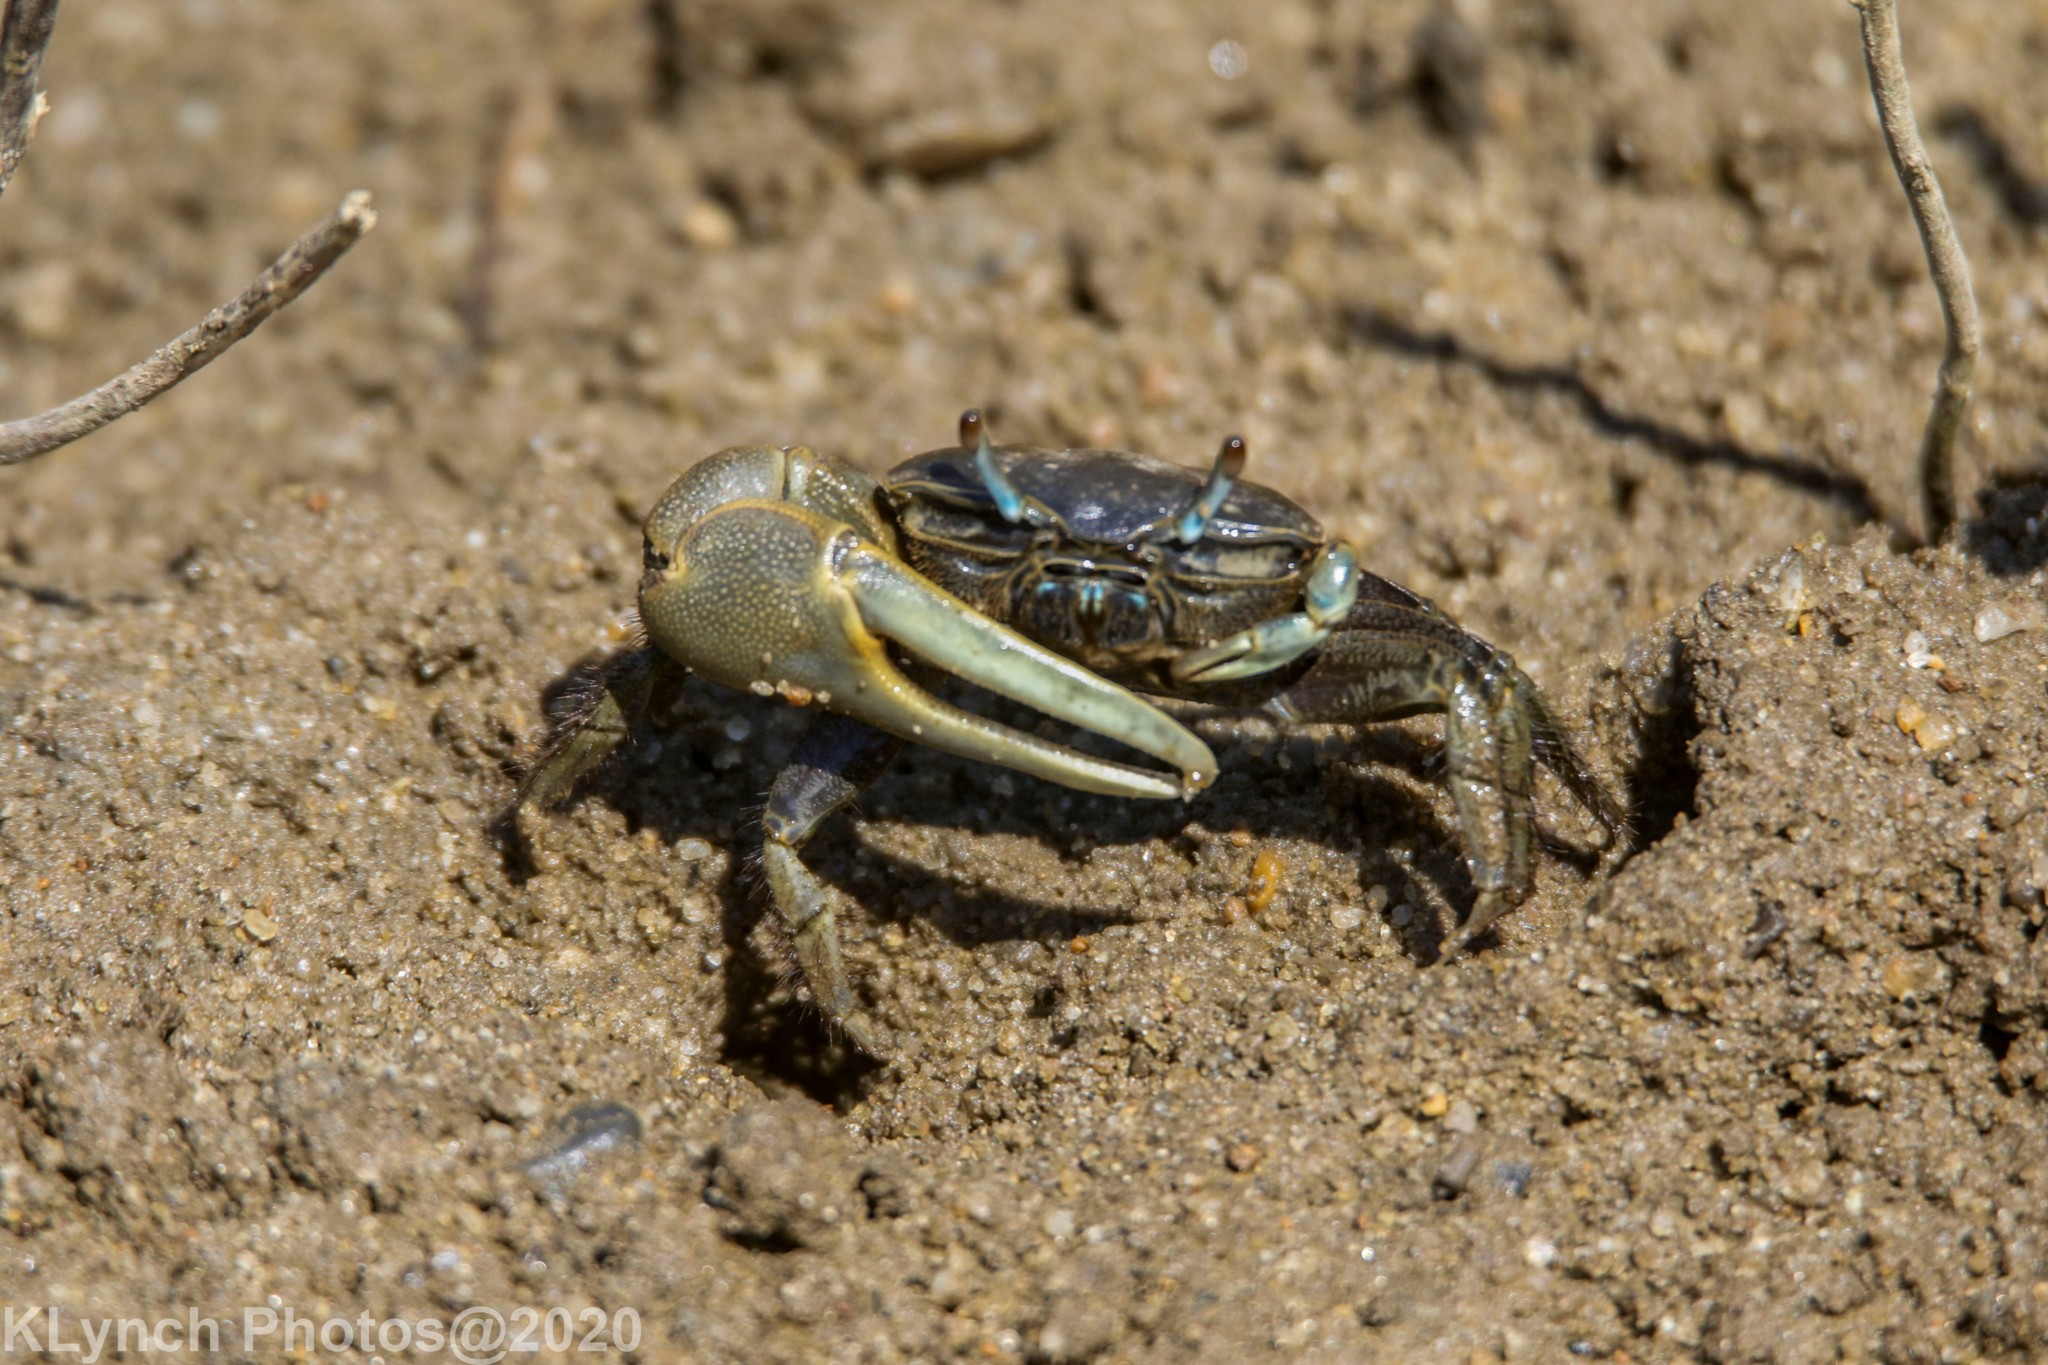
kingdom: Animalia
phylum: Arthropoda
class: Malacostraca
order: Decapoda
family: Ocypodidae
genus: Minuca
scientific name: Minuca pugnax
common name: Mud fiddler crab
